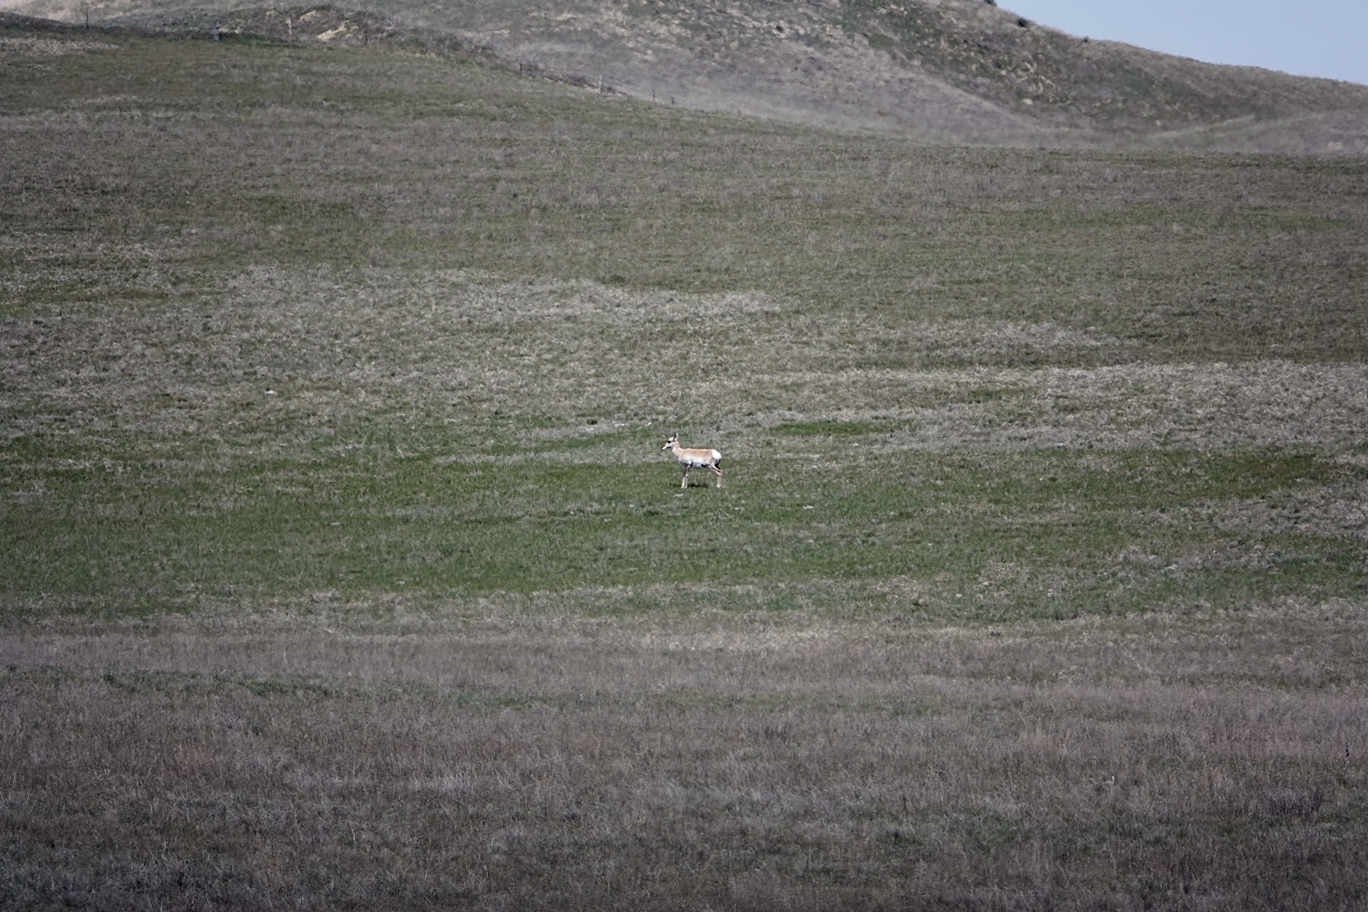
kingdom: Animalia
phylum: Chordata
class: Mammalia
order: Artiodactyla
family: Antilocapridae
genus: Antilocapra
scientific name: Antilocapra americana
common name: Pronghorn
